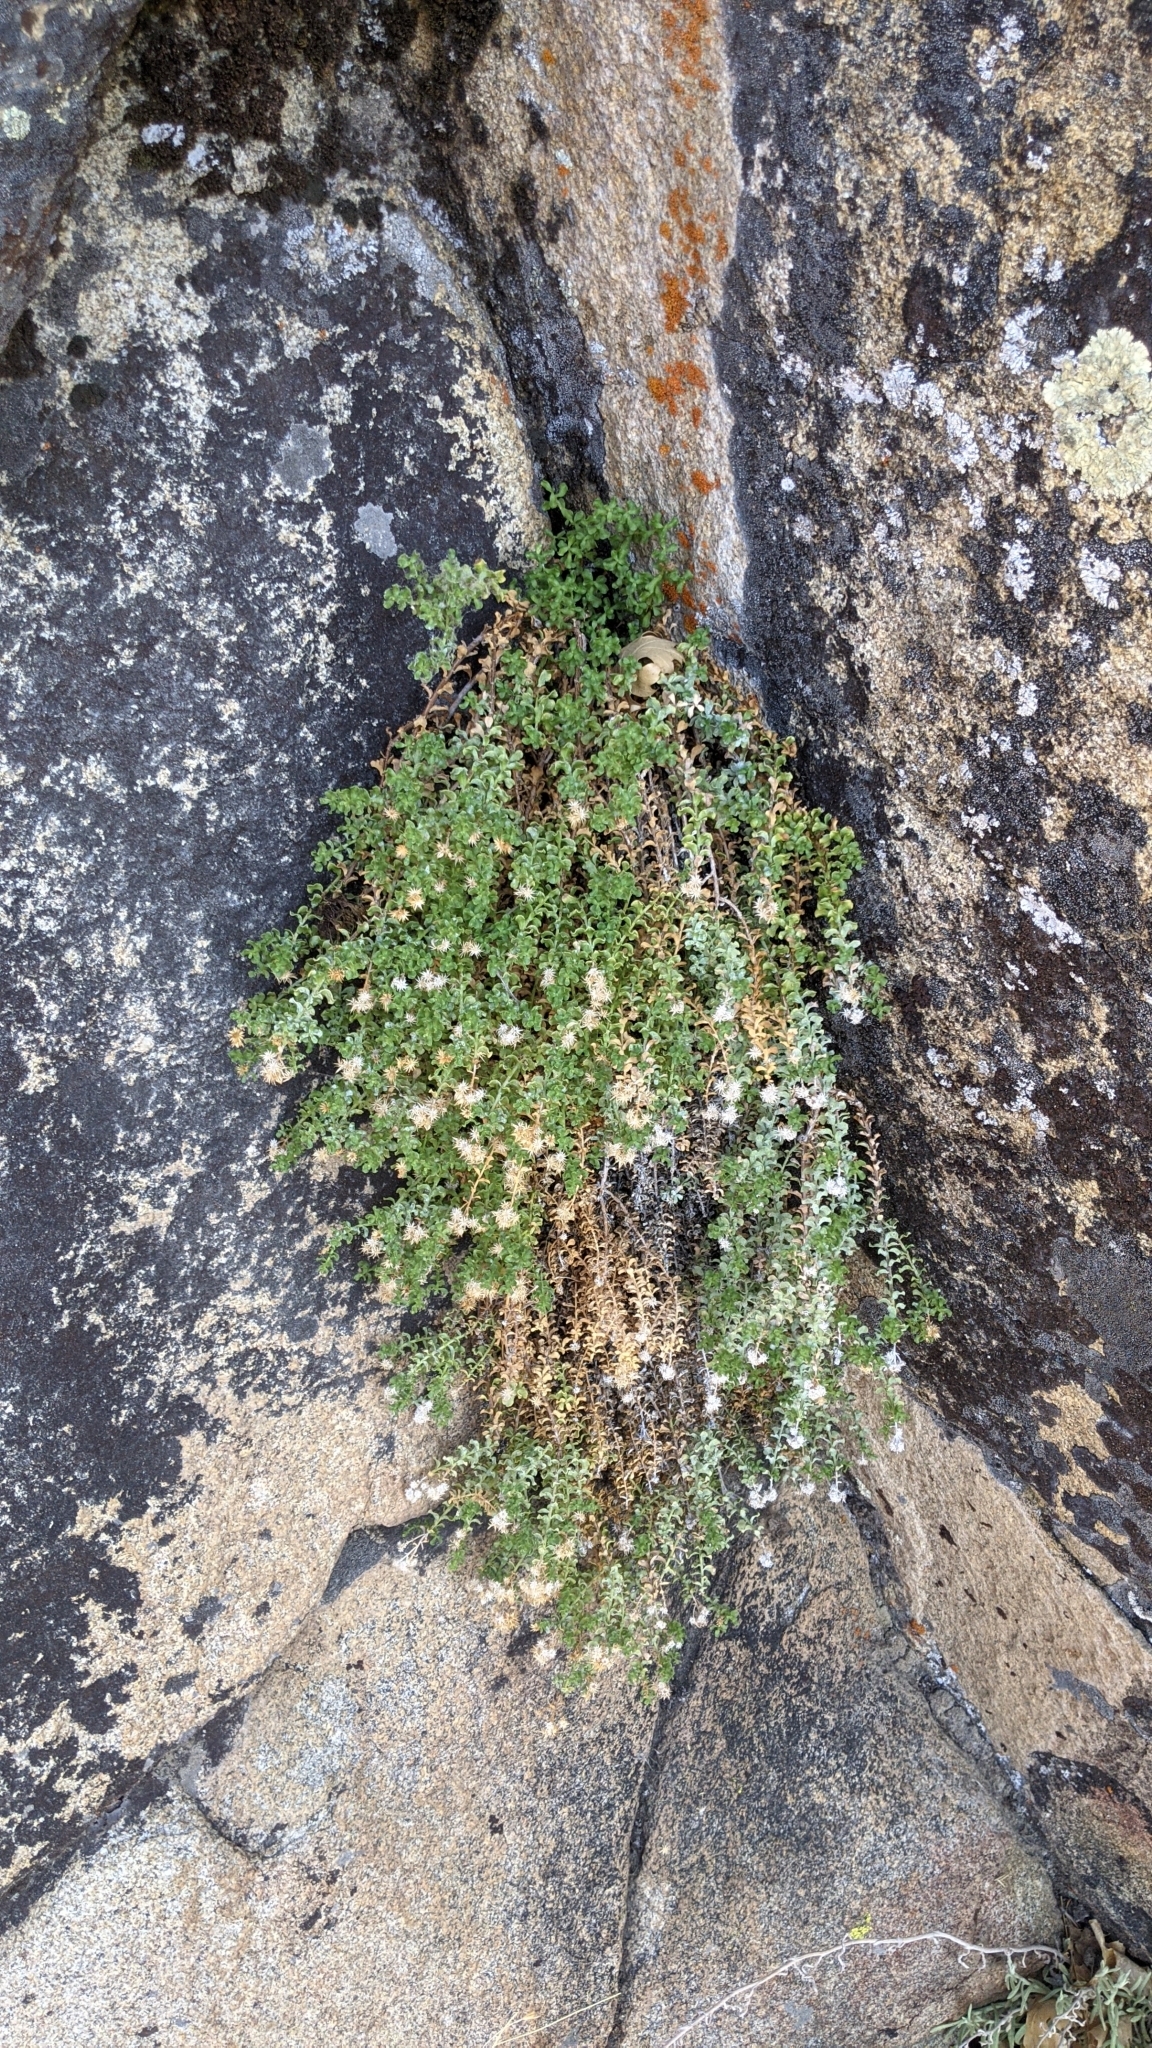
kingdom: Plantae
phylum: Tracheophyta
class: Magnoliopsida
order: Asterales
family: Asteraceae
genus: Ericameria
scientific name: Ericameria cuneata
